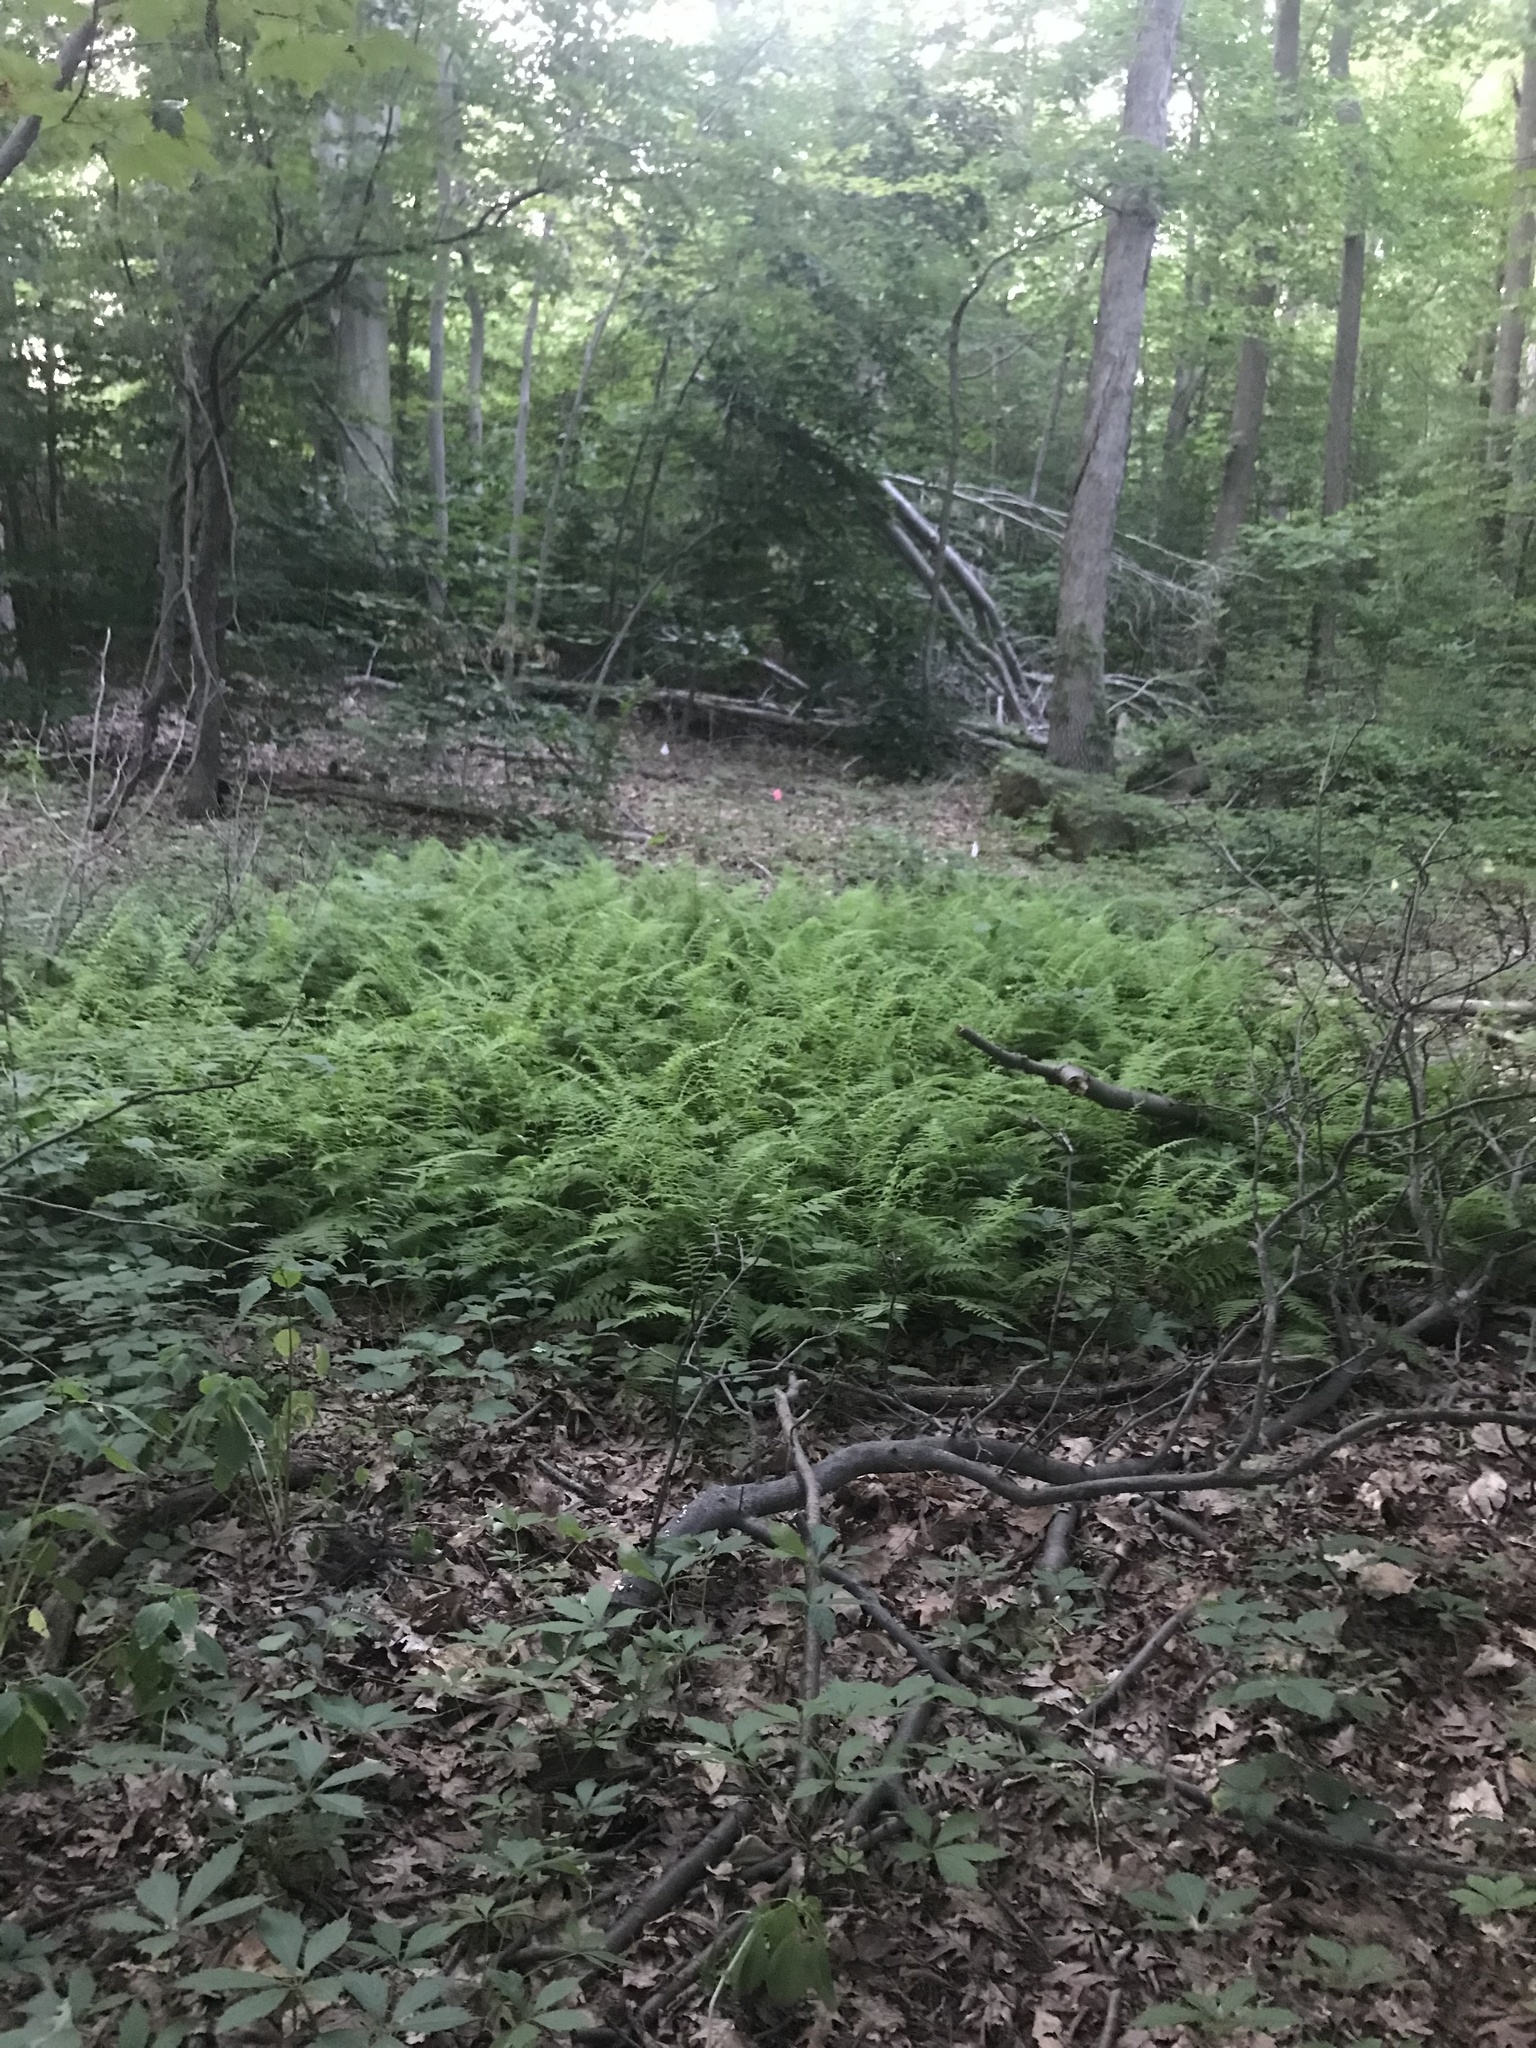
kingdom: Plantae
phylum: Tracheophyta
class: Polypodiopsida
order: Polypodiales
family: Thelypteridaceae
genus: Amauropelta
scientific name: Amauropelta noveboracensis
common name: New york fern
